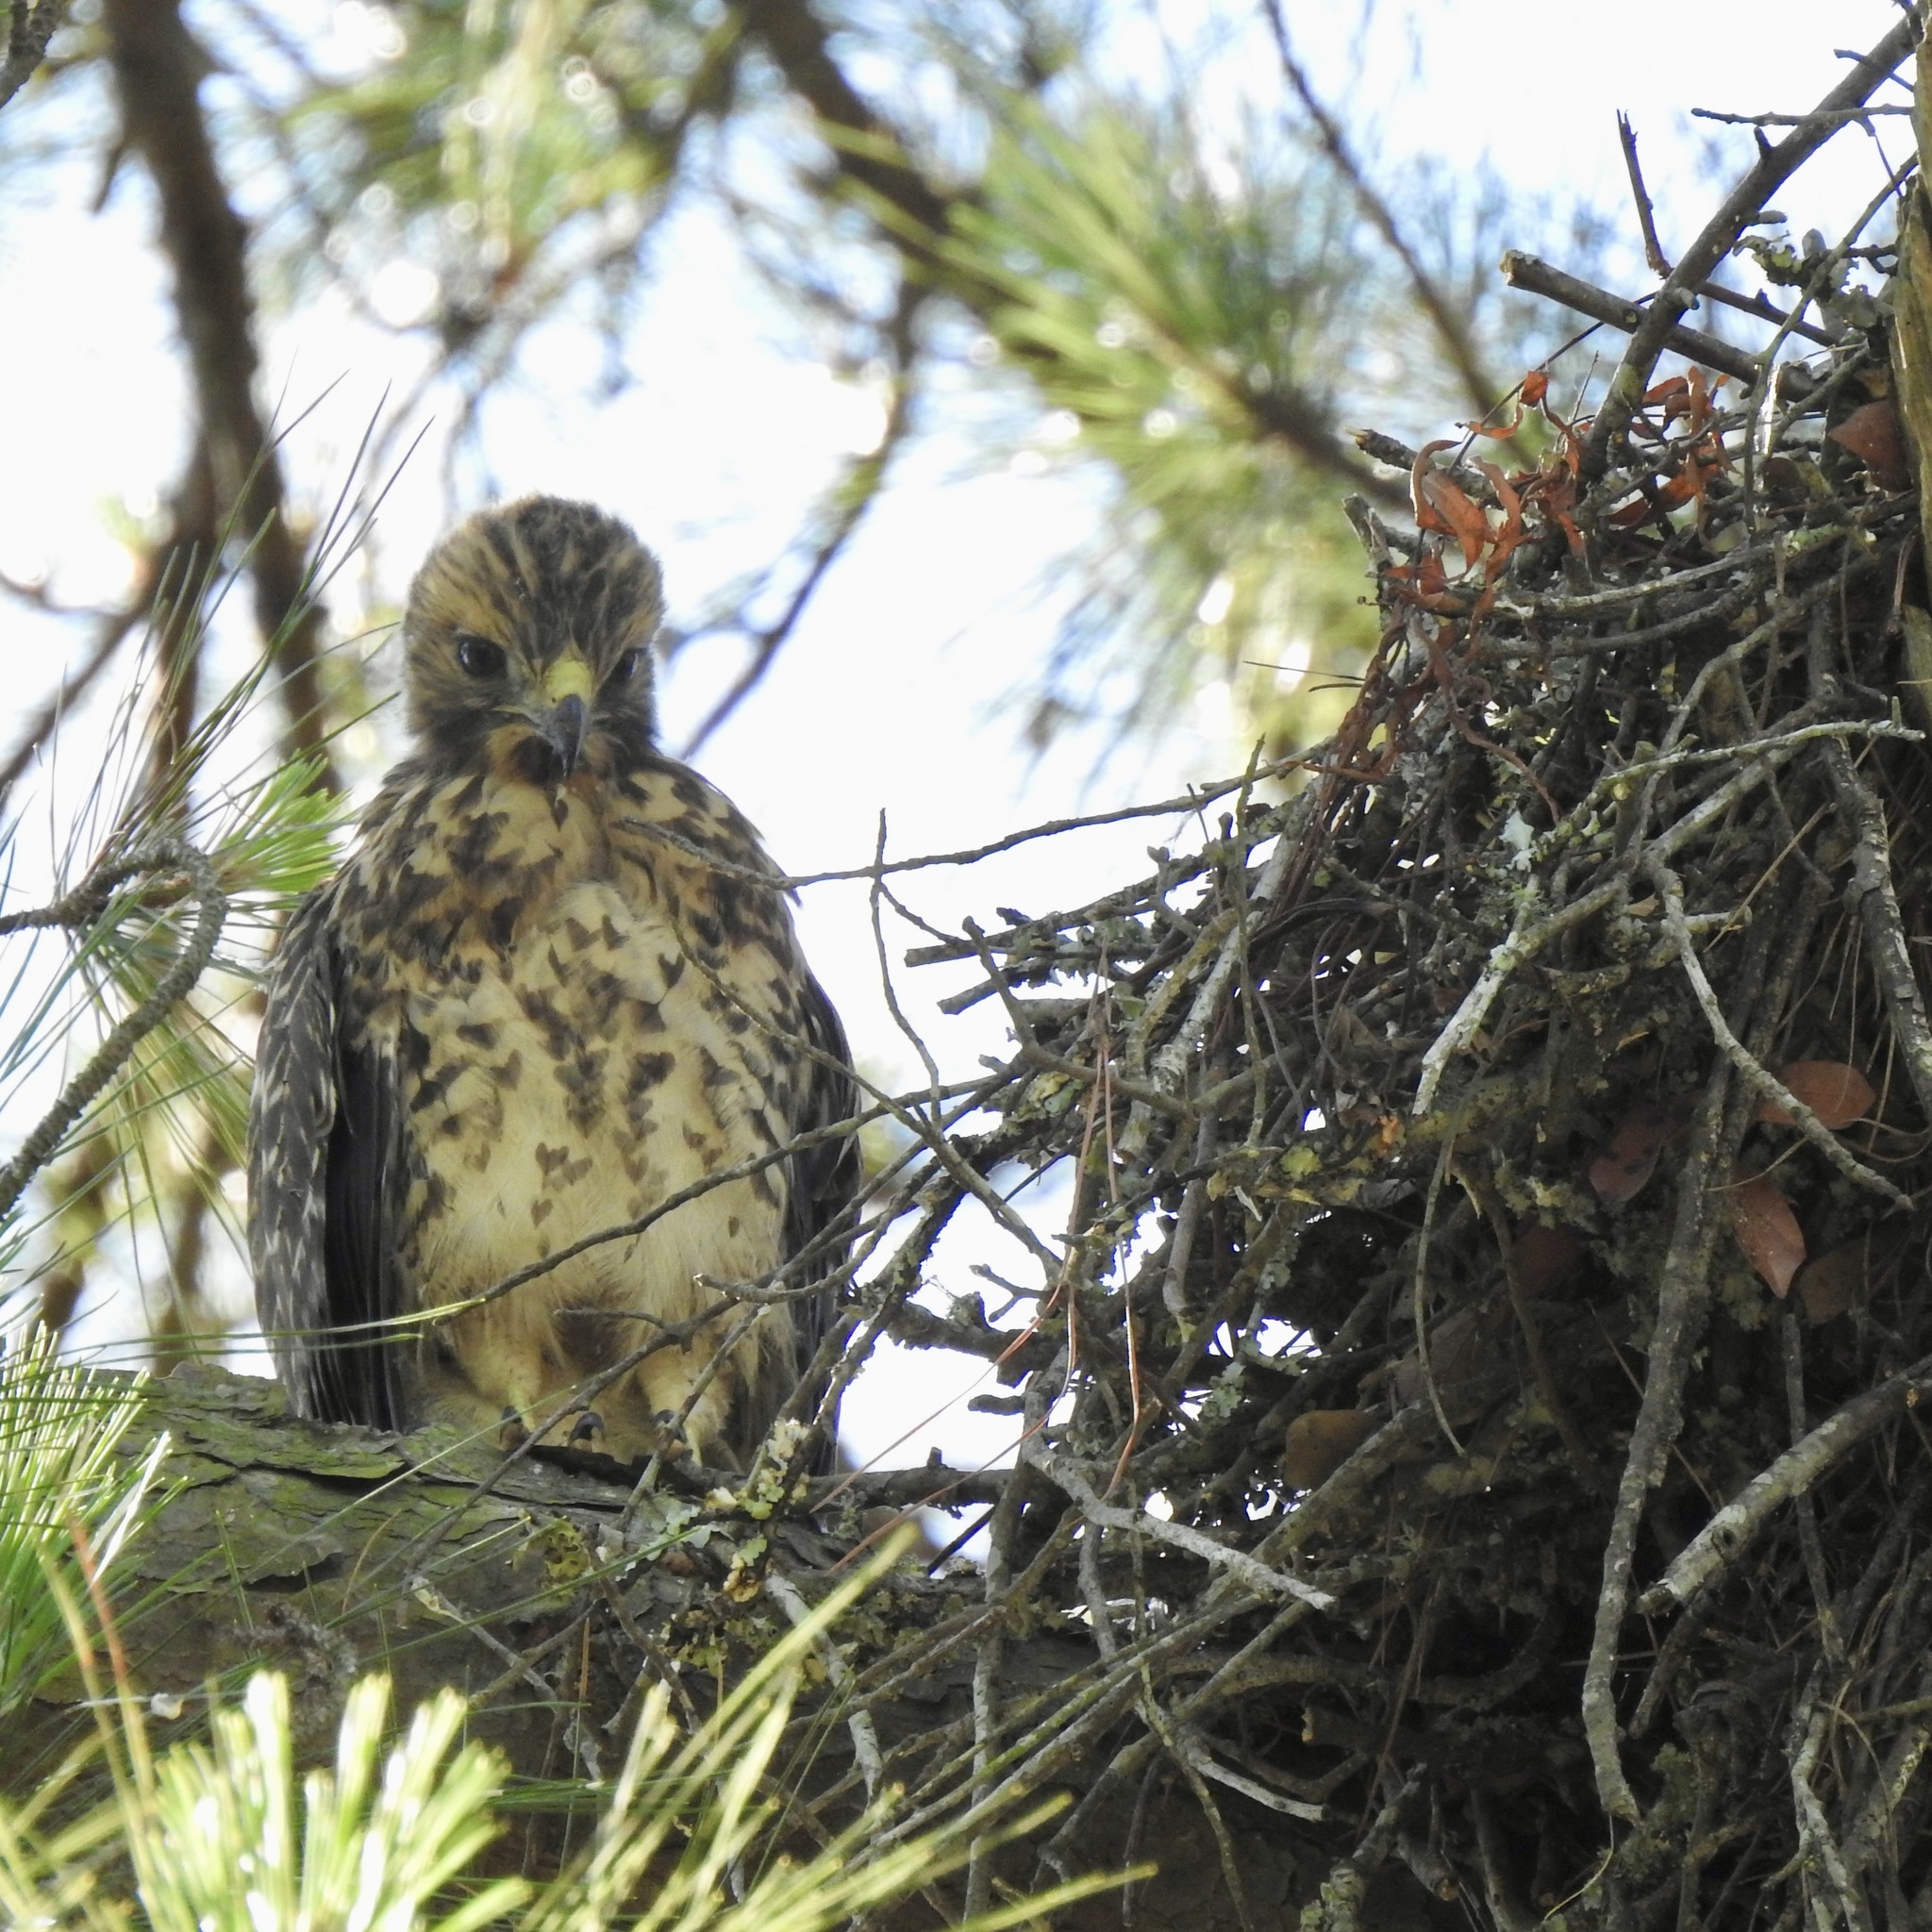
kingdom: Animalia
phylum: Chordata
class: Aves
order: Accipitriformes
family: Accipitridae
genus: Buteo
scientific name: Buteo lineatus
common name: Red-shouldered hawk
